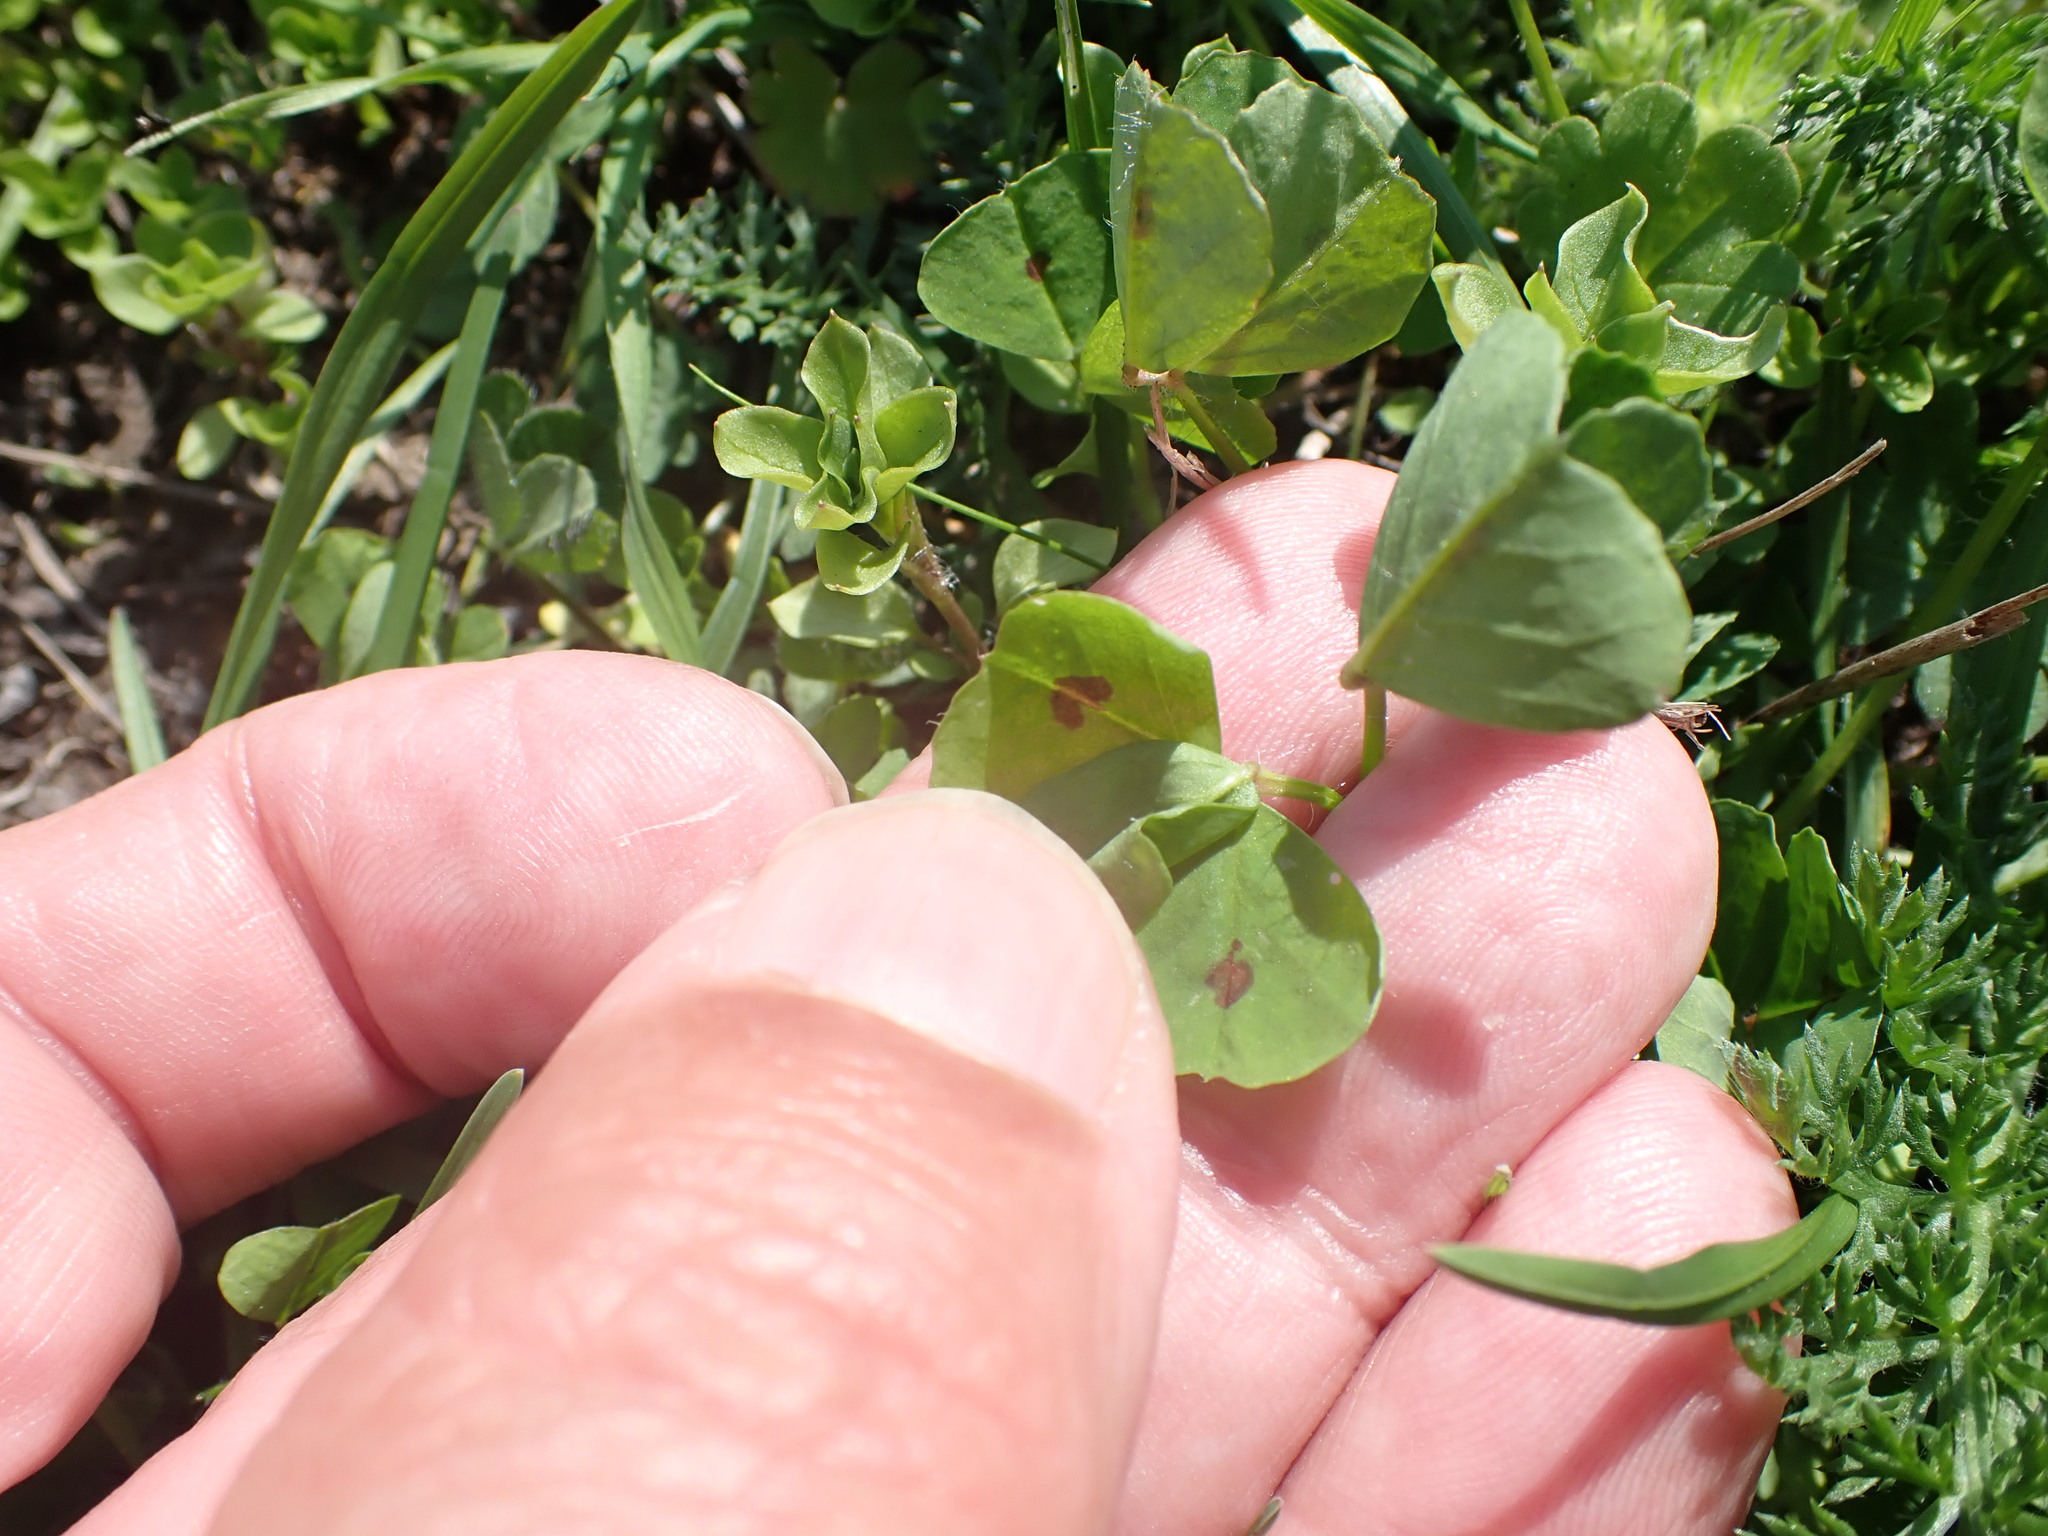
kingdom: Plantae
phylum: Tracheophyta
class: Magnoliopsida
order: Fabales
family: Fabaceae
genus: Medicago
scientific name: Medicago arabica
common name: Spotted medick
